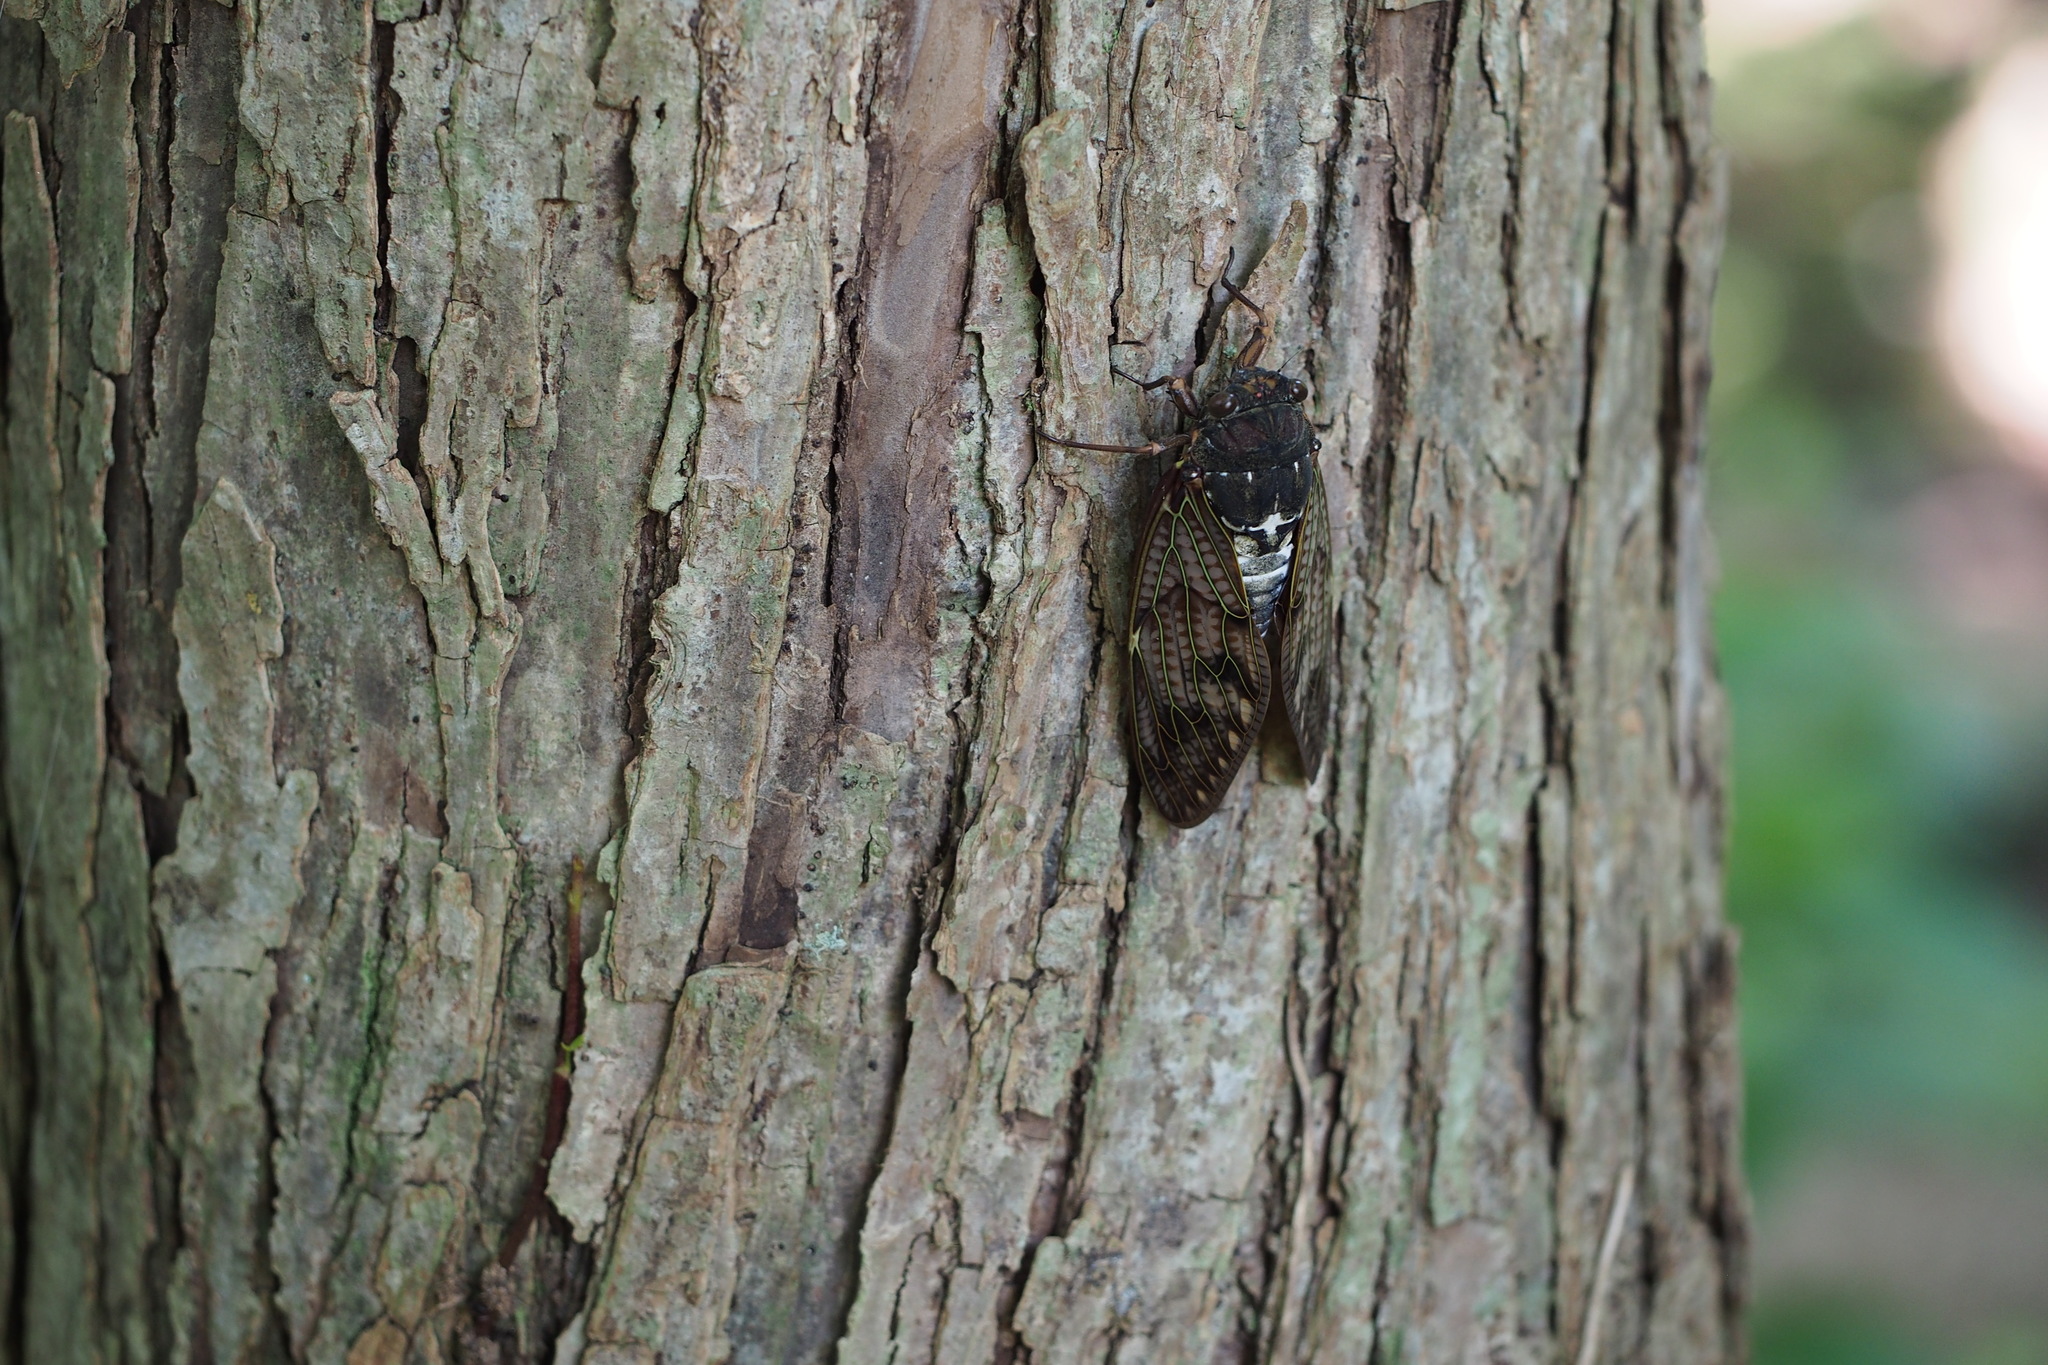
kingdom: Animalia
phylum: Arthropoda
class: Insecta
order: Hemiptera
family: Cicadidae
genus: Graptopsaltria
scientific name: Graptopsaltria nigrofuscata
